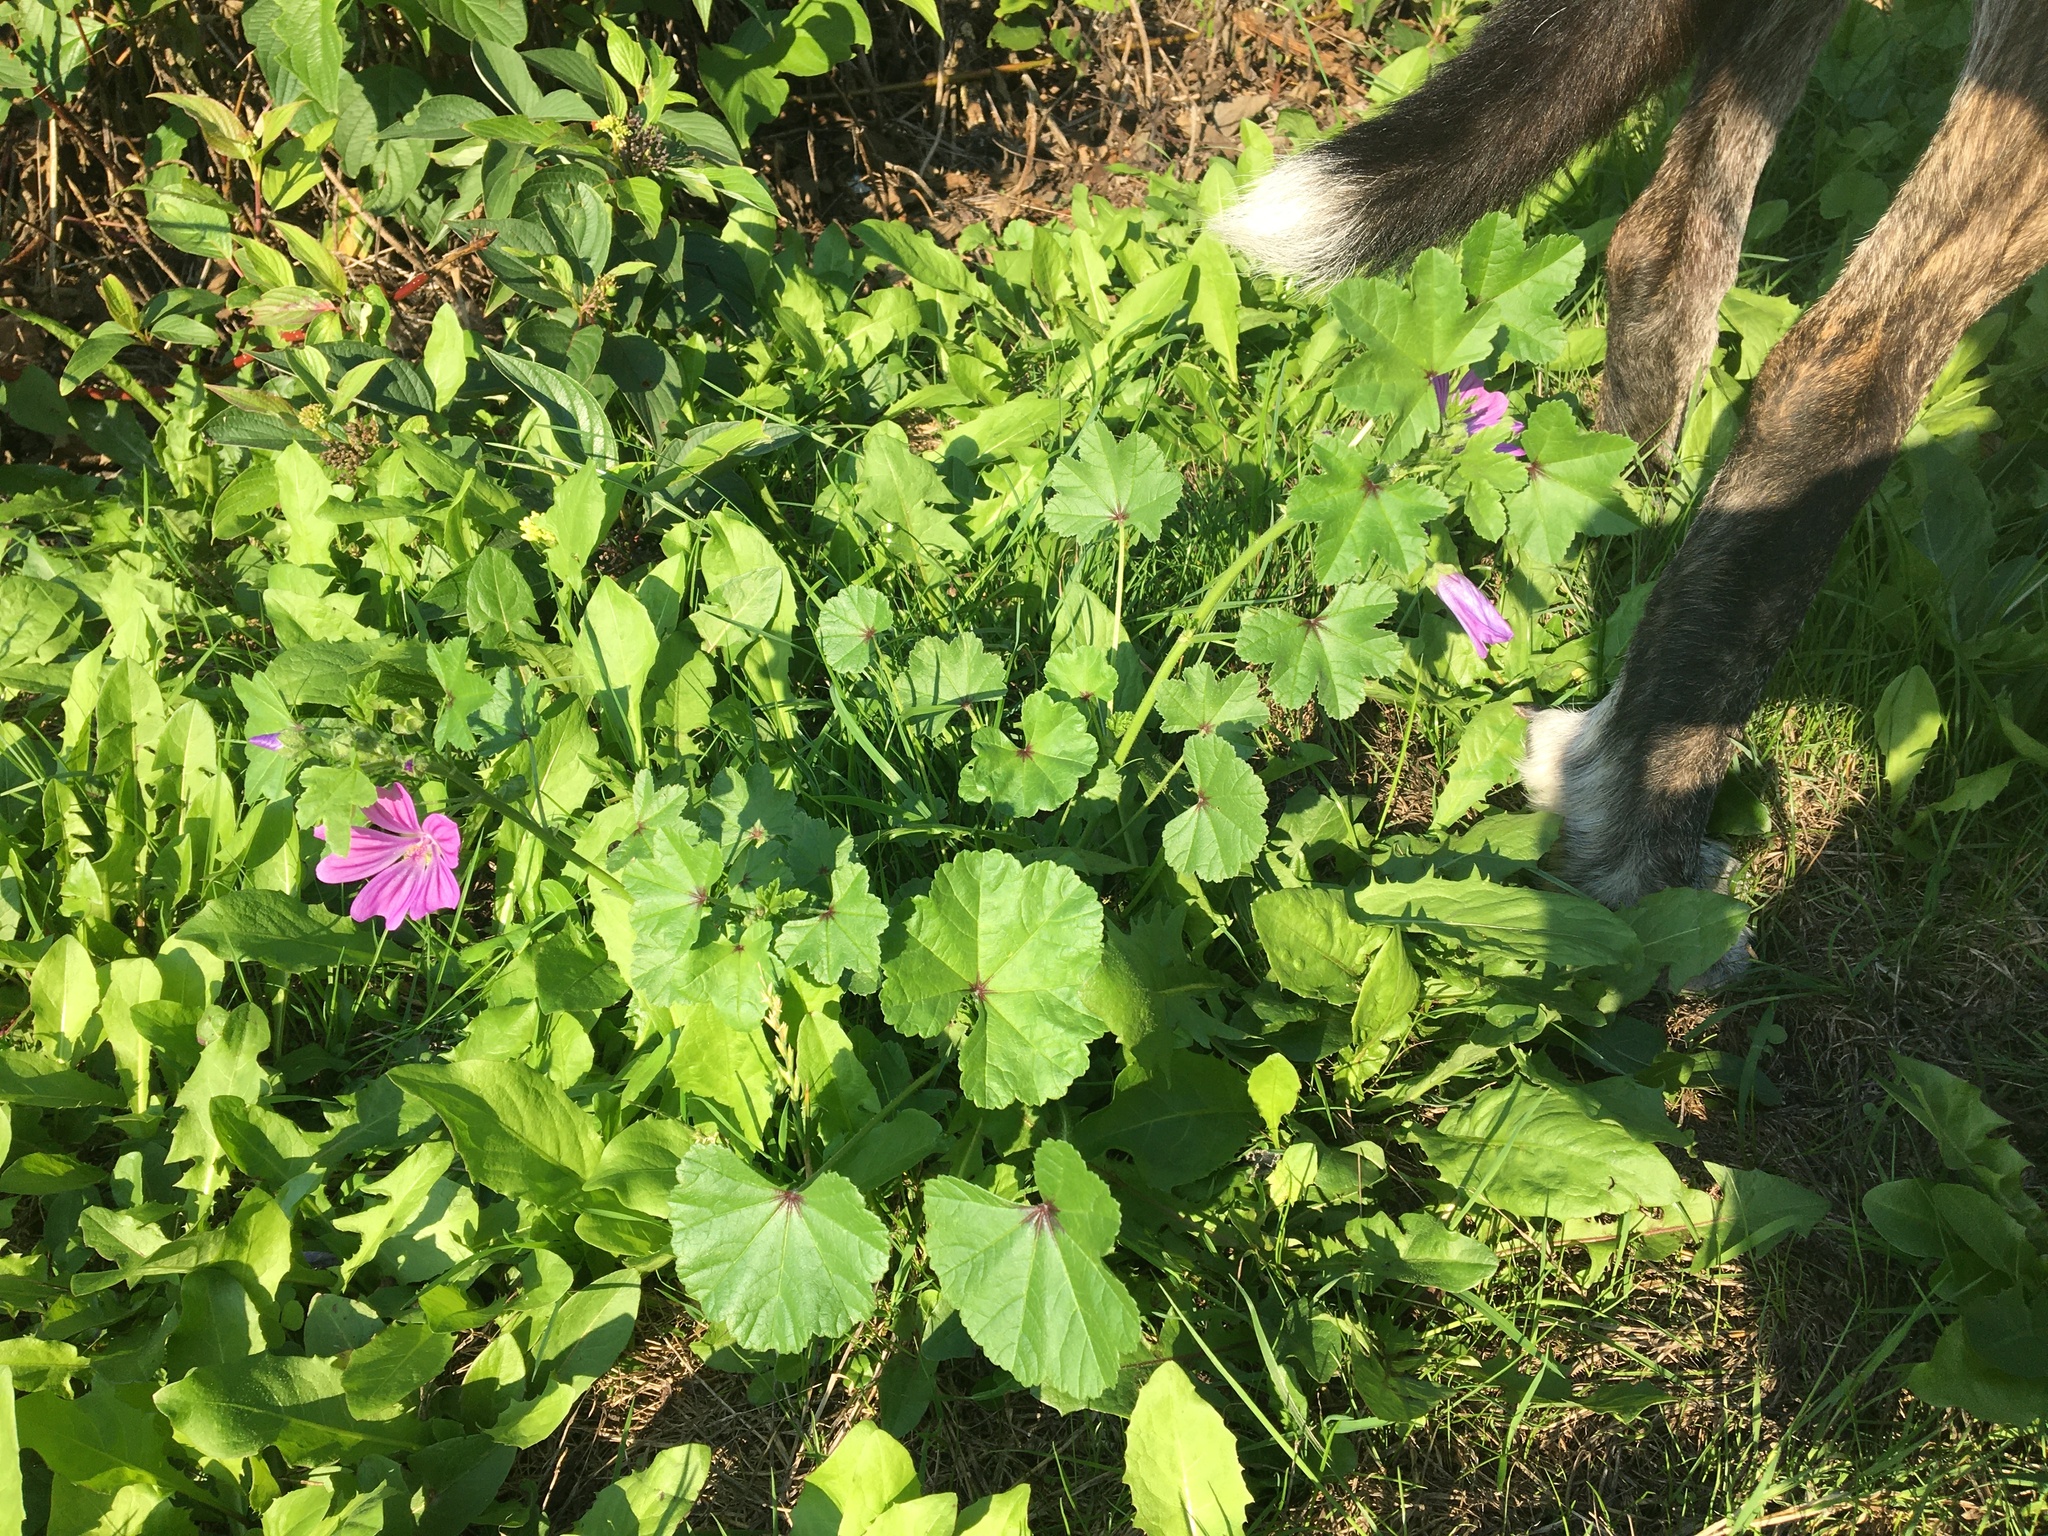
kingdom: Plantae
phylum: Tracheophyta
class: Magnoliopsida
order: Malvales
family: Malvaceae
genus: Malva
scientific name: Malva sylvestris
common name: Common mallow
